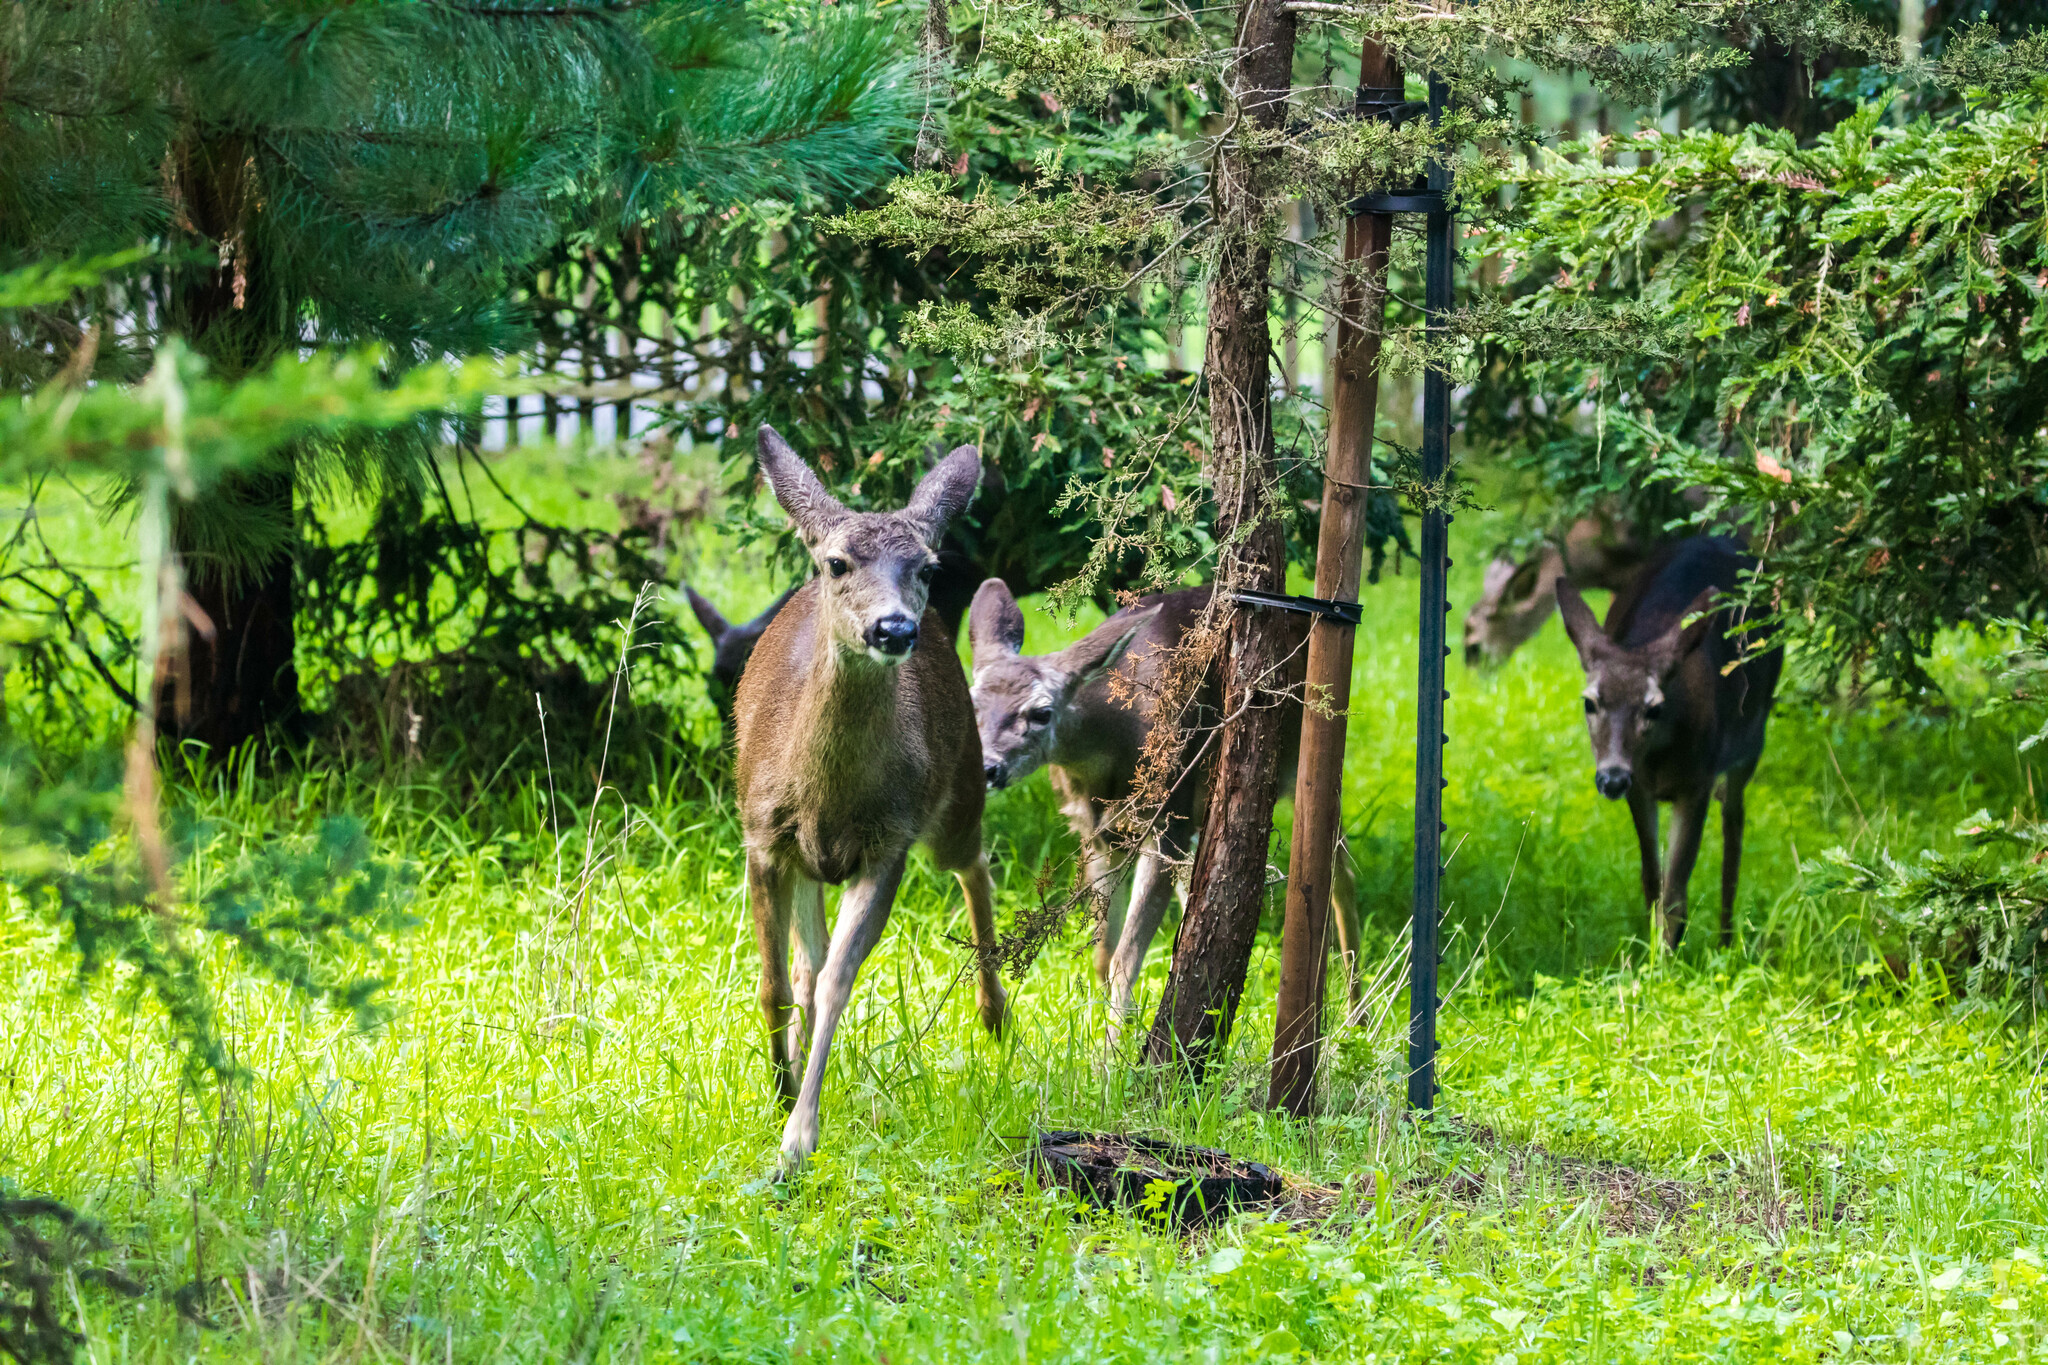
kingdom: Animalia
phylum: Chordata
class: Mammalia
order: Artiodactyla
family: Cervidae
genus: Odocoileus
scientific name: Odocoileus hemionus
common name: Mule deer
